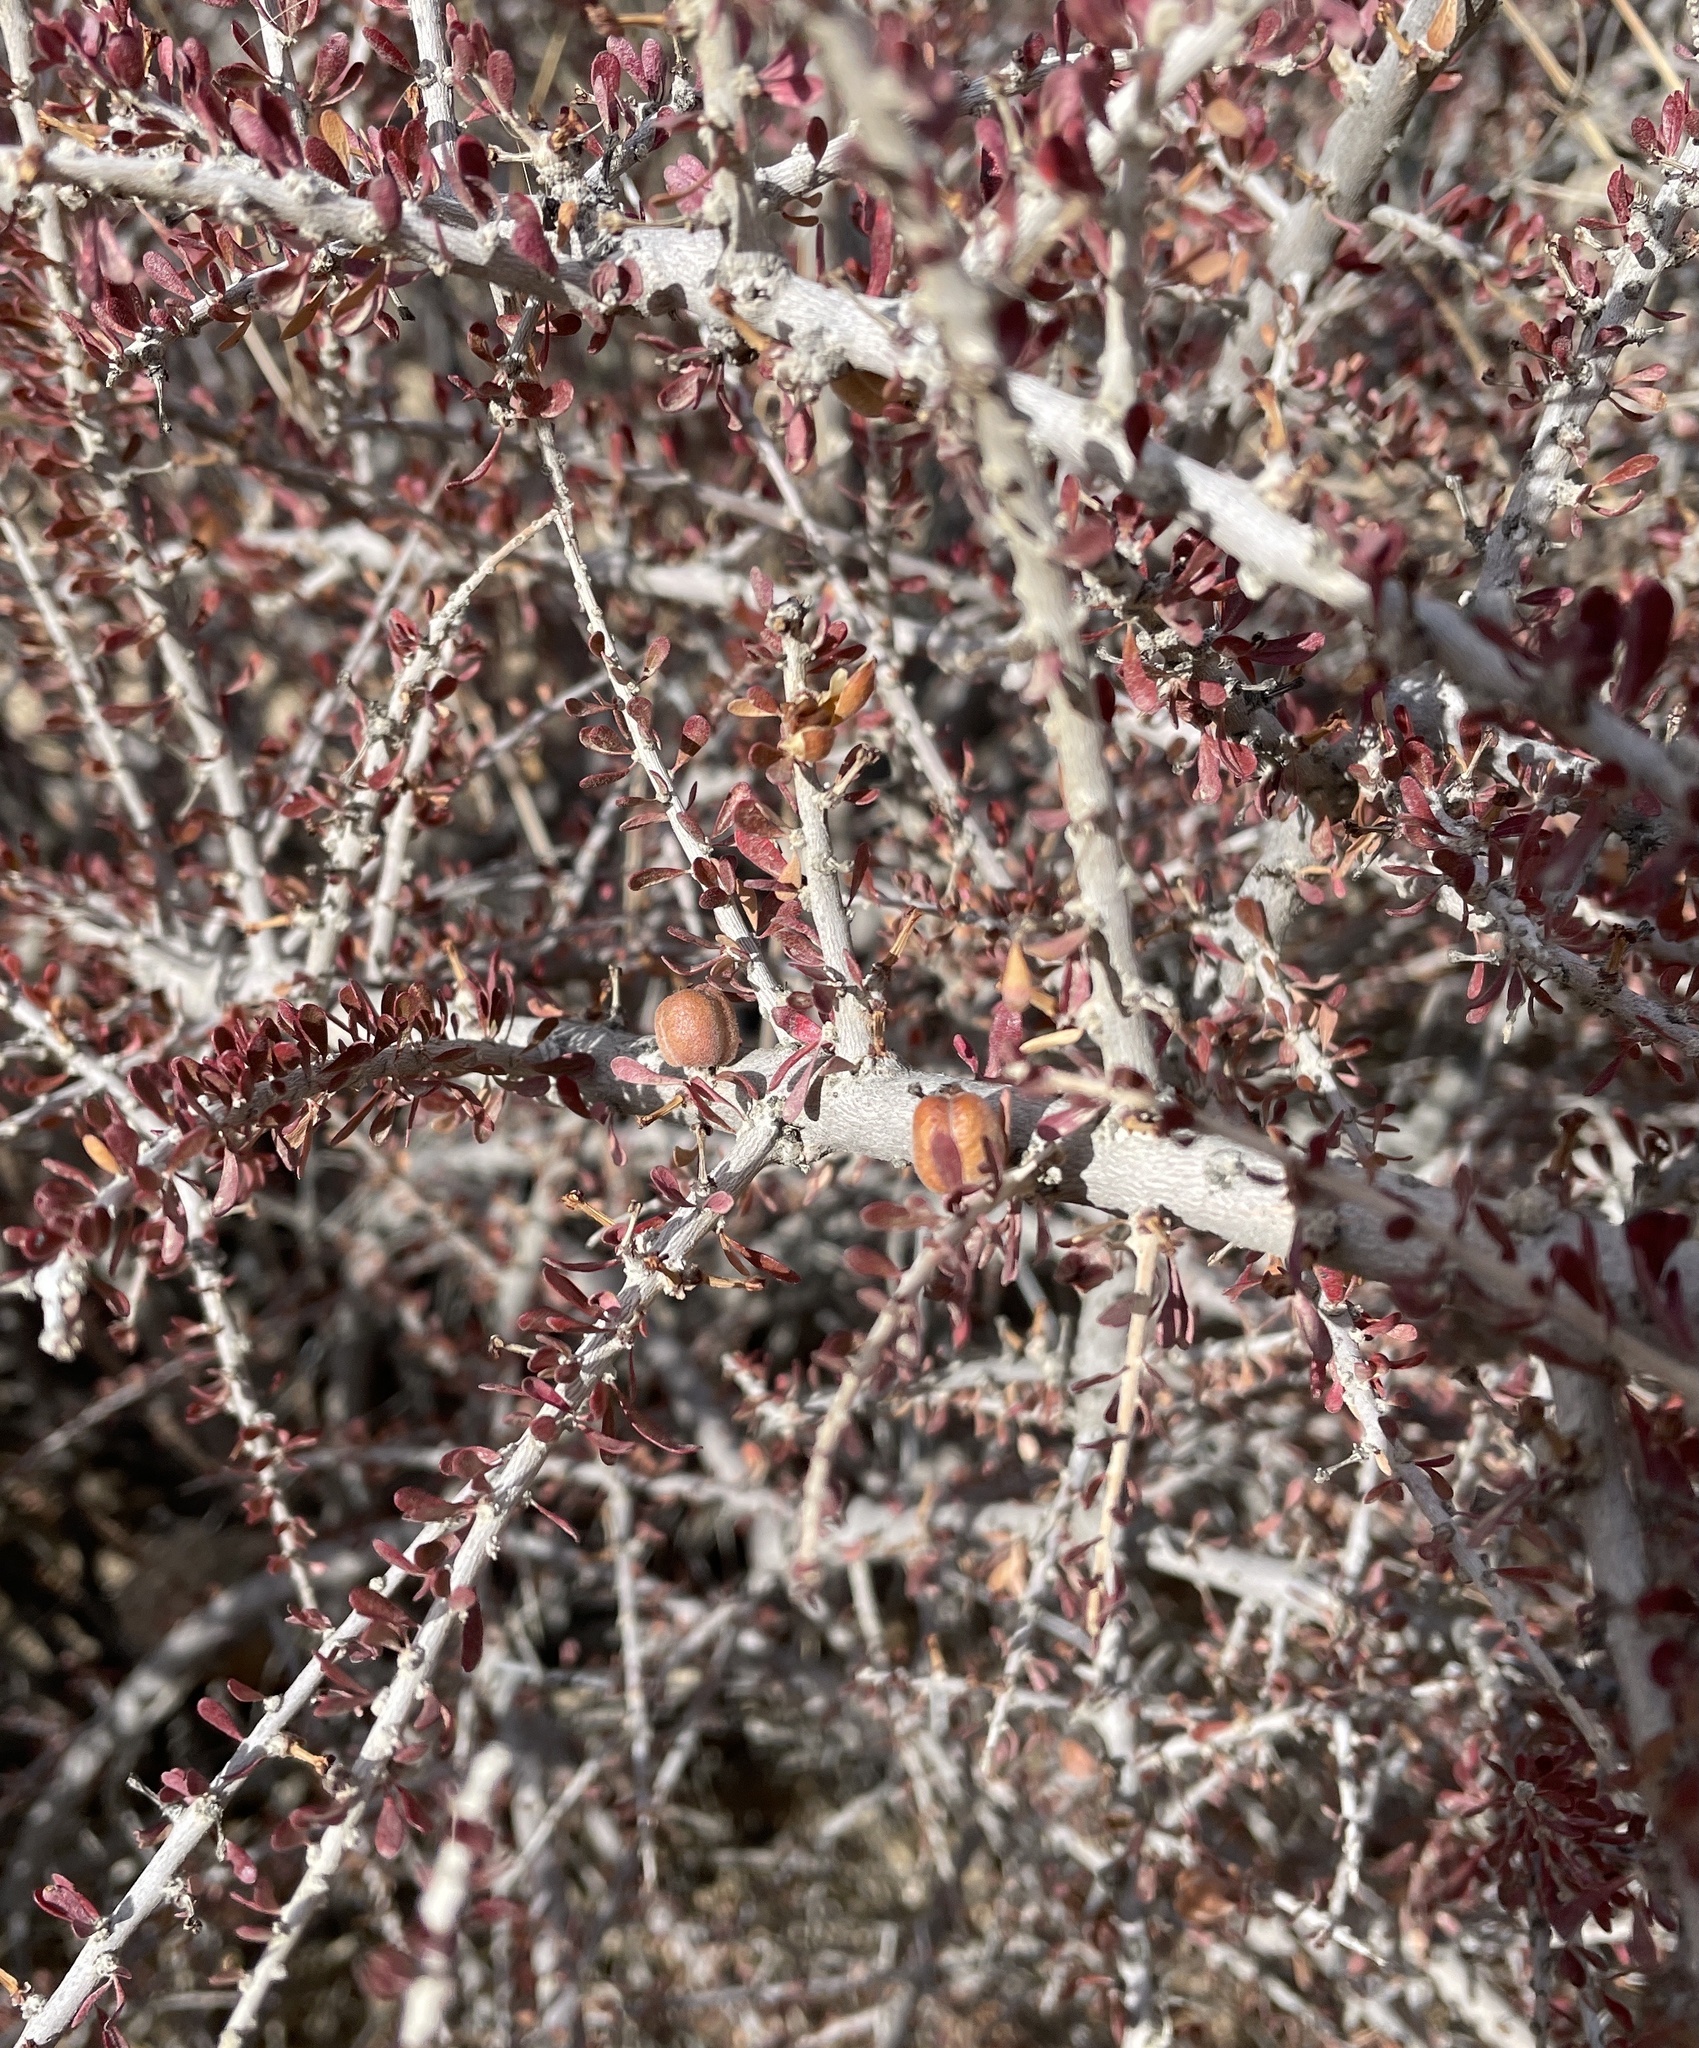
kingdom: Plantae
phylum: Tracheophyta
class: Magnoliopsida
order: Malpighiales
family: Picrodendraceae
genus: Tetracoccus
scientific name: Tetracoccus hallii
